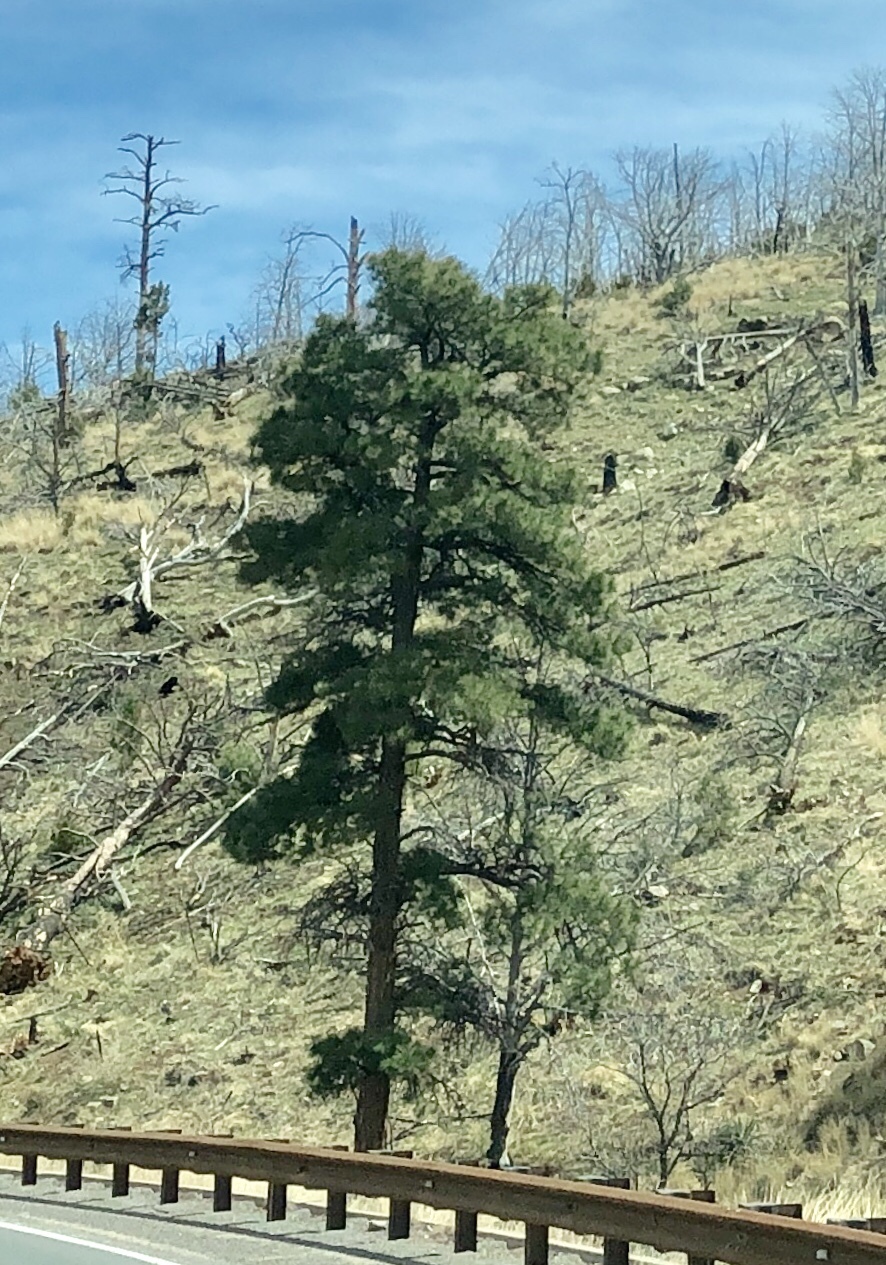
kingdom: Plantae
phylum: Tracheophyta
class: Pinopsida
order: Pinales
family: Pinaceae
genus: Pinus
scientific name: Pinus ponderosa
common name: Western yellow-pine
